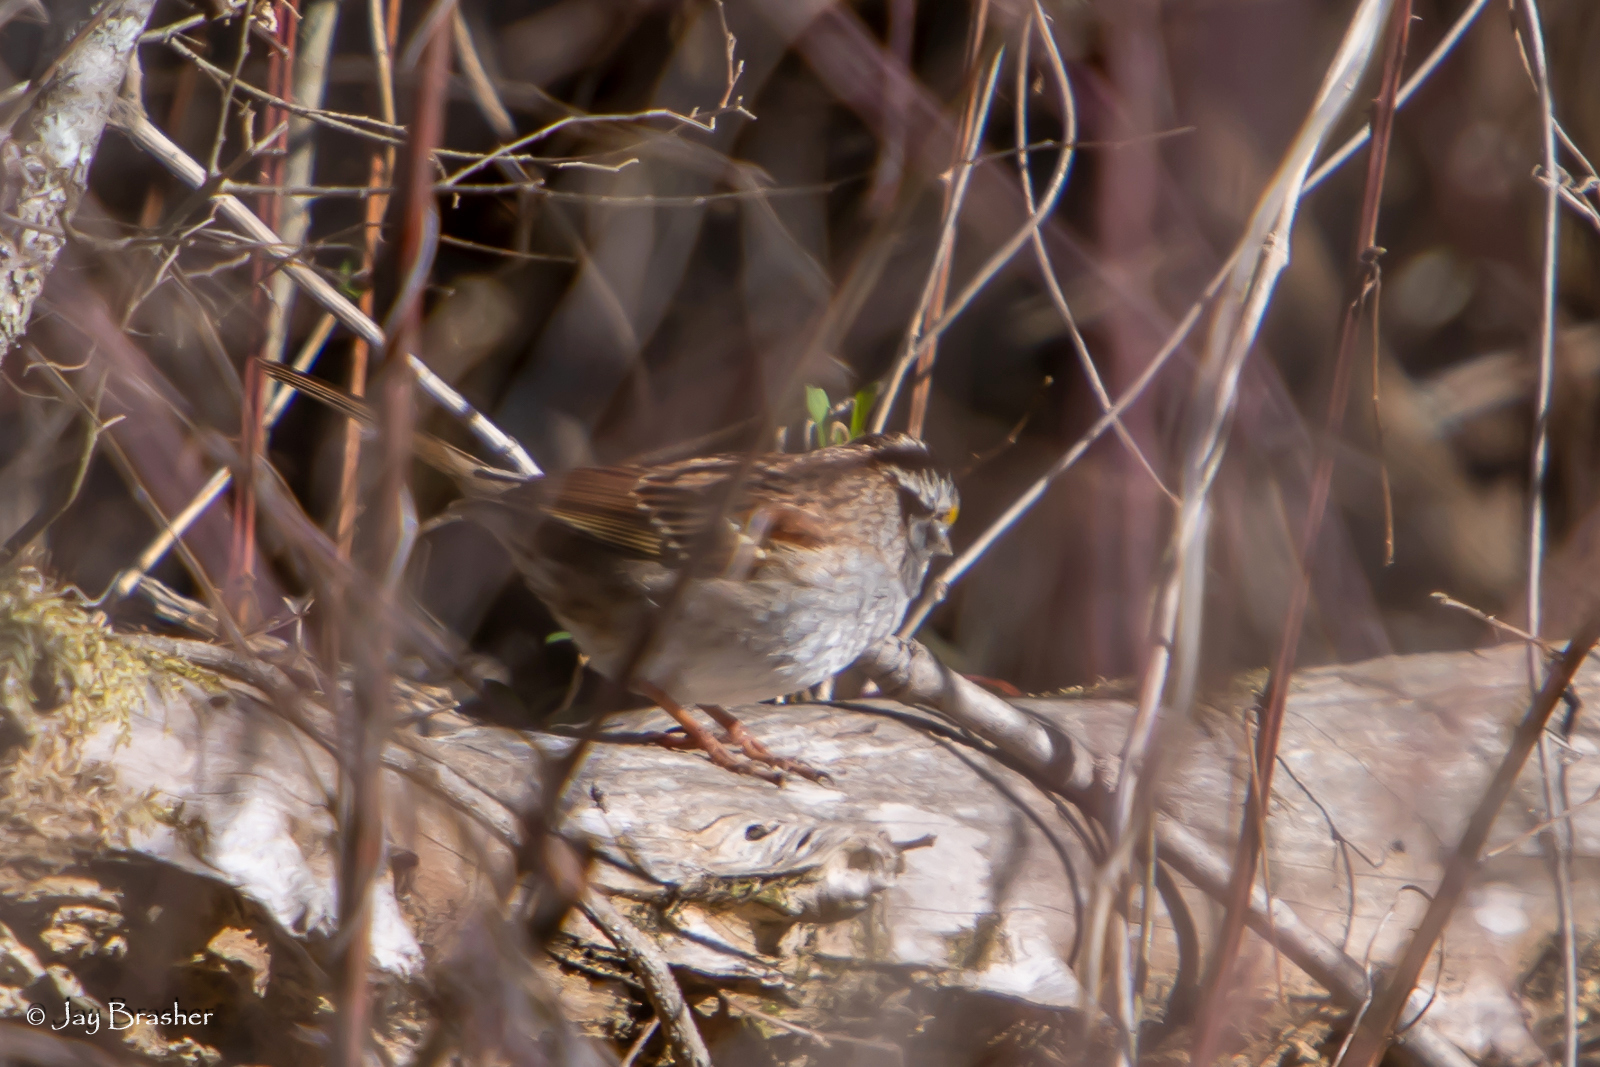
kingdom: Animalia
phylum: Chordata
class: Aves
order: Passeriformes
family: Passerellidae
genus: Zonotrichia
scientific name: Zonotrichia albicollis
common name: White-throated sparrow
